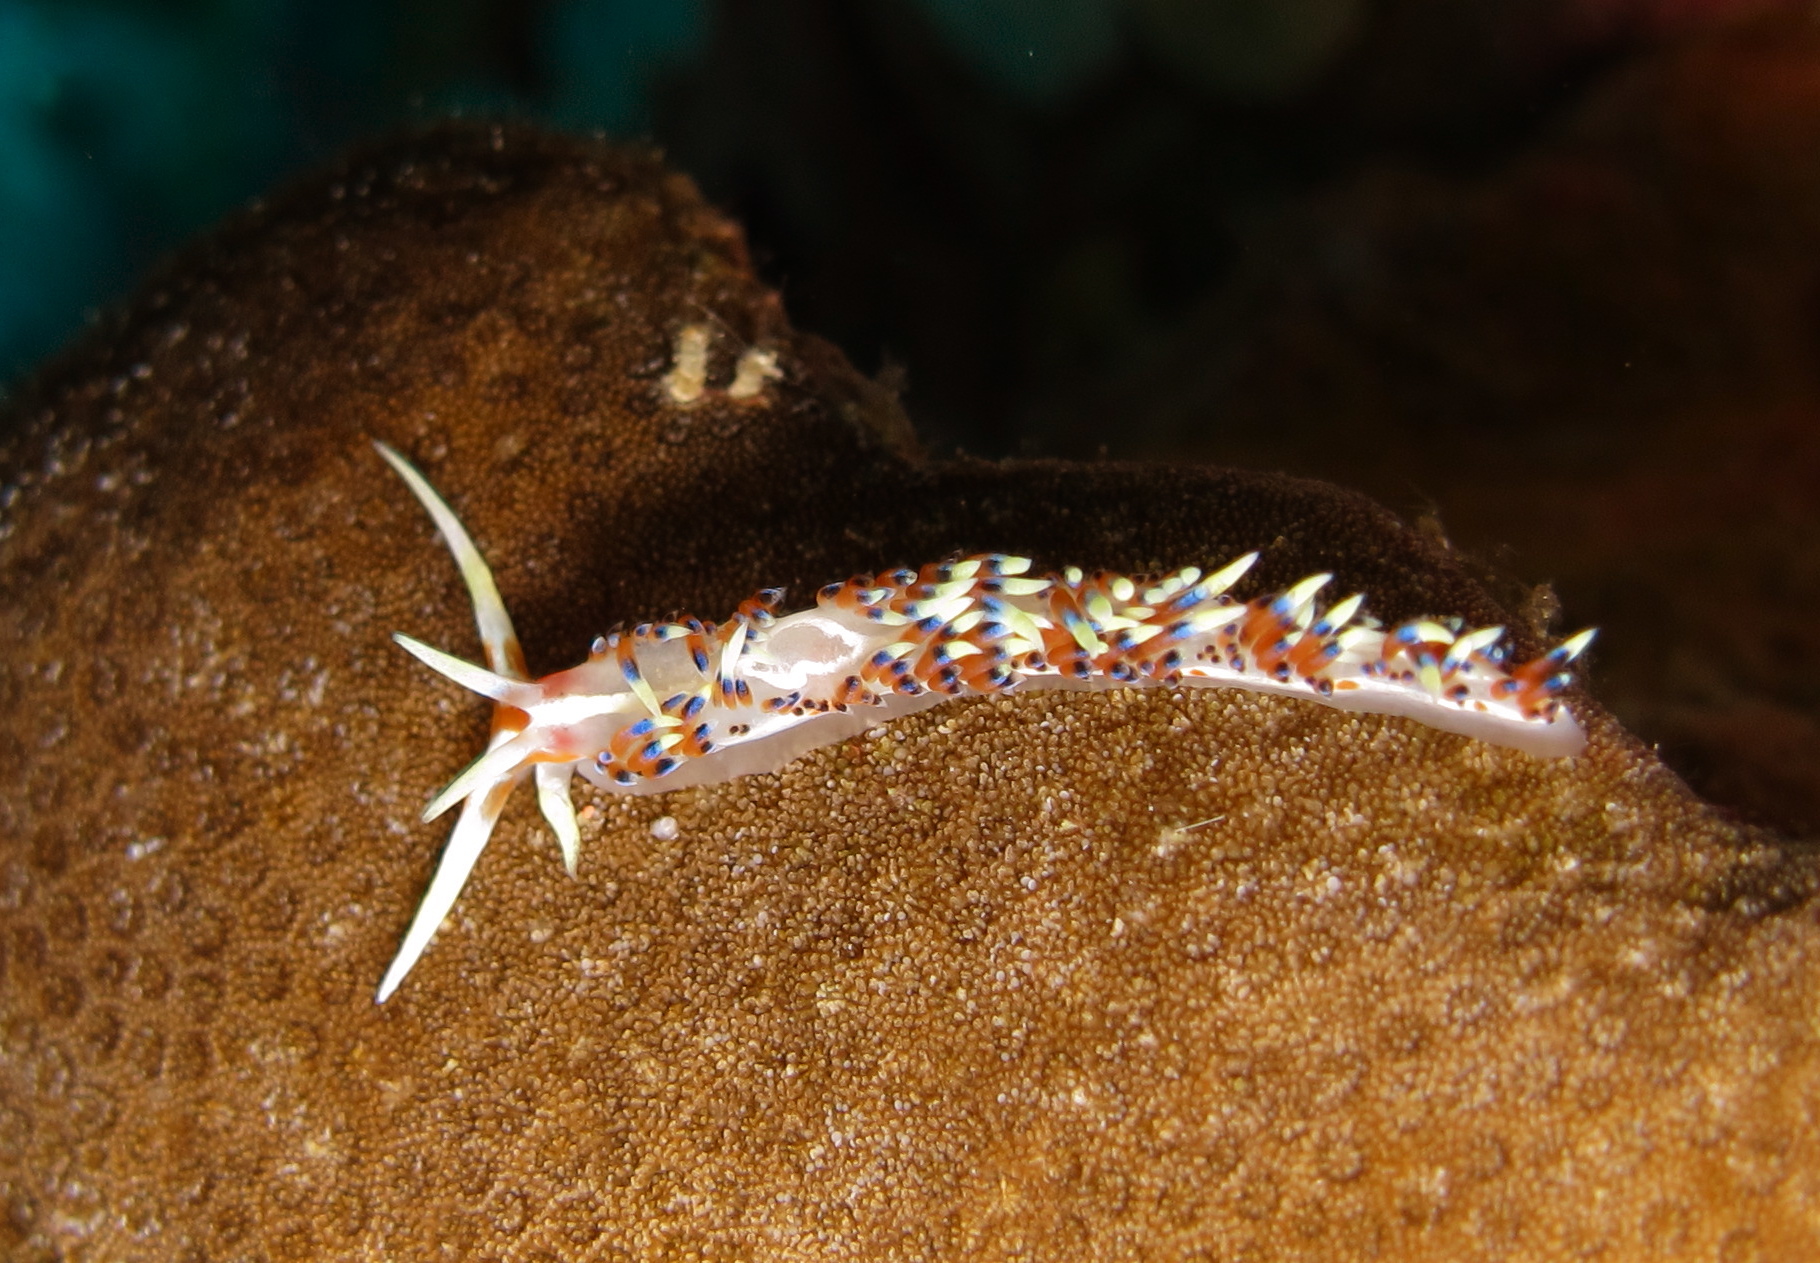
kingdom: Animalia
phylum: Mollusca
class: Gastropoda
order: Nudibranchia
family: Facelinidae
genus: Caloria
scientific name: Caloria indica
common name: Sea slug
